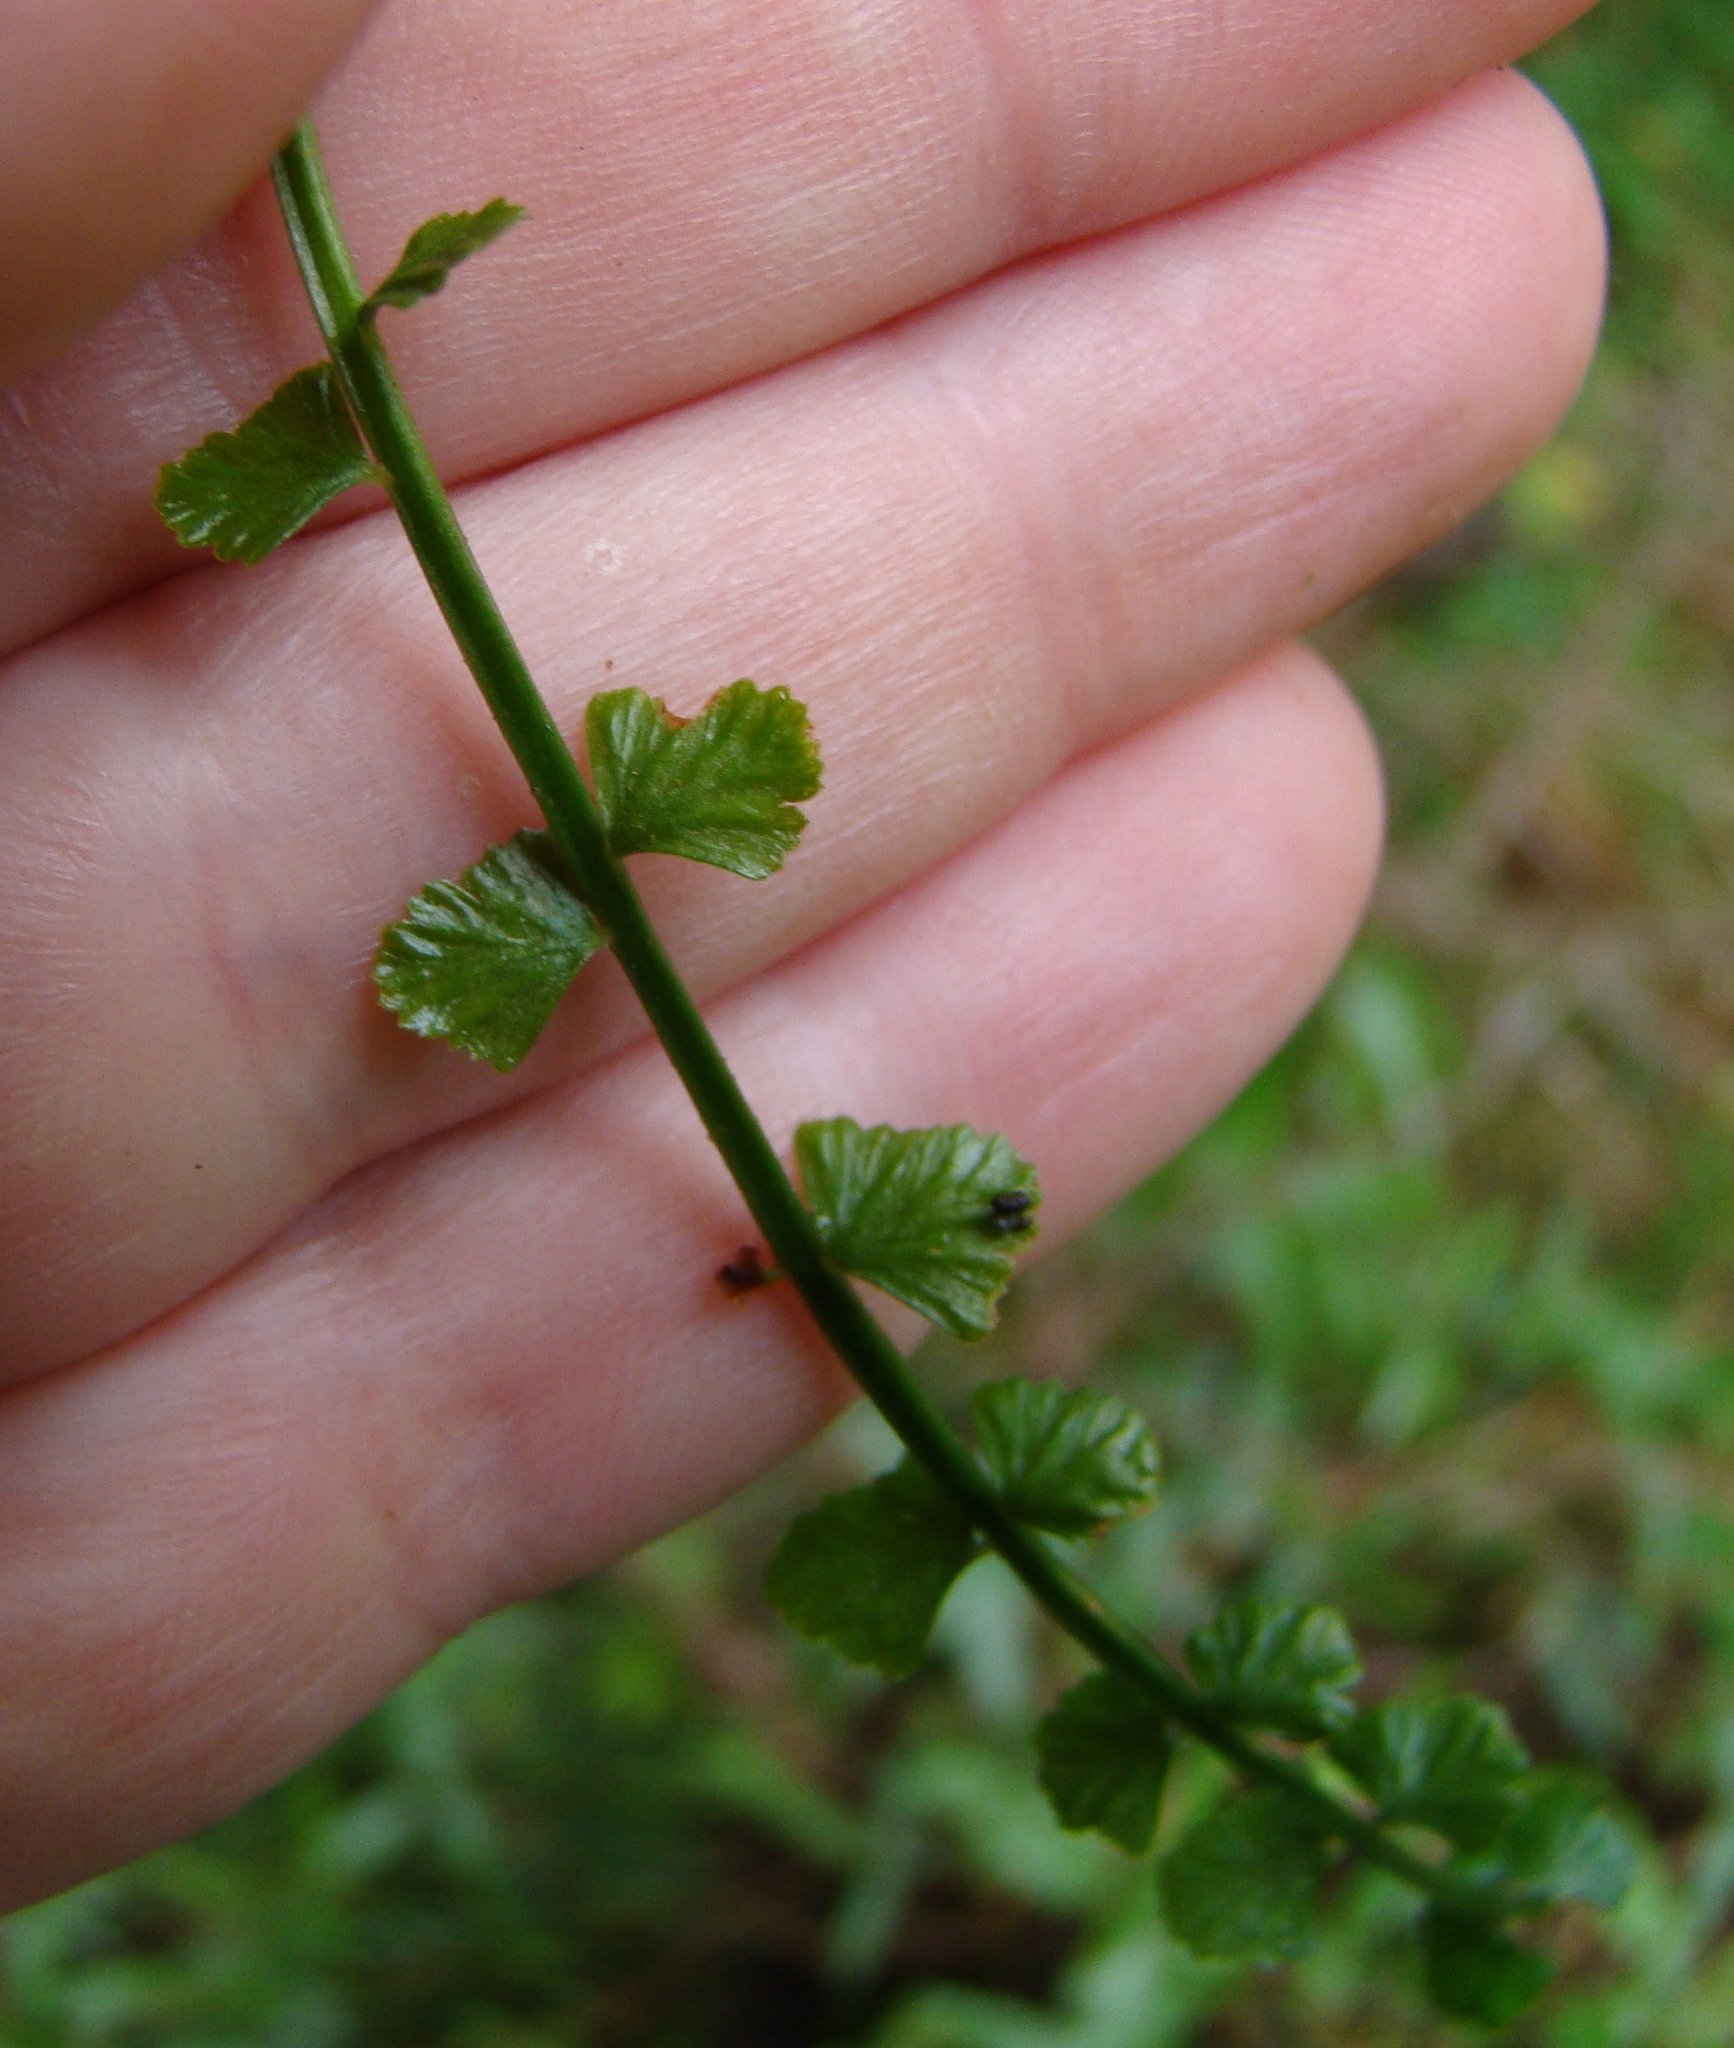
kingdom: Plantae
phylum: Tracheophyta
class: Polypodiopsida
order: Polypodiales
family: Aspleniaceae
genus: Asplenium
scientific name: Asplenium flabellifolium
